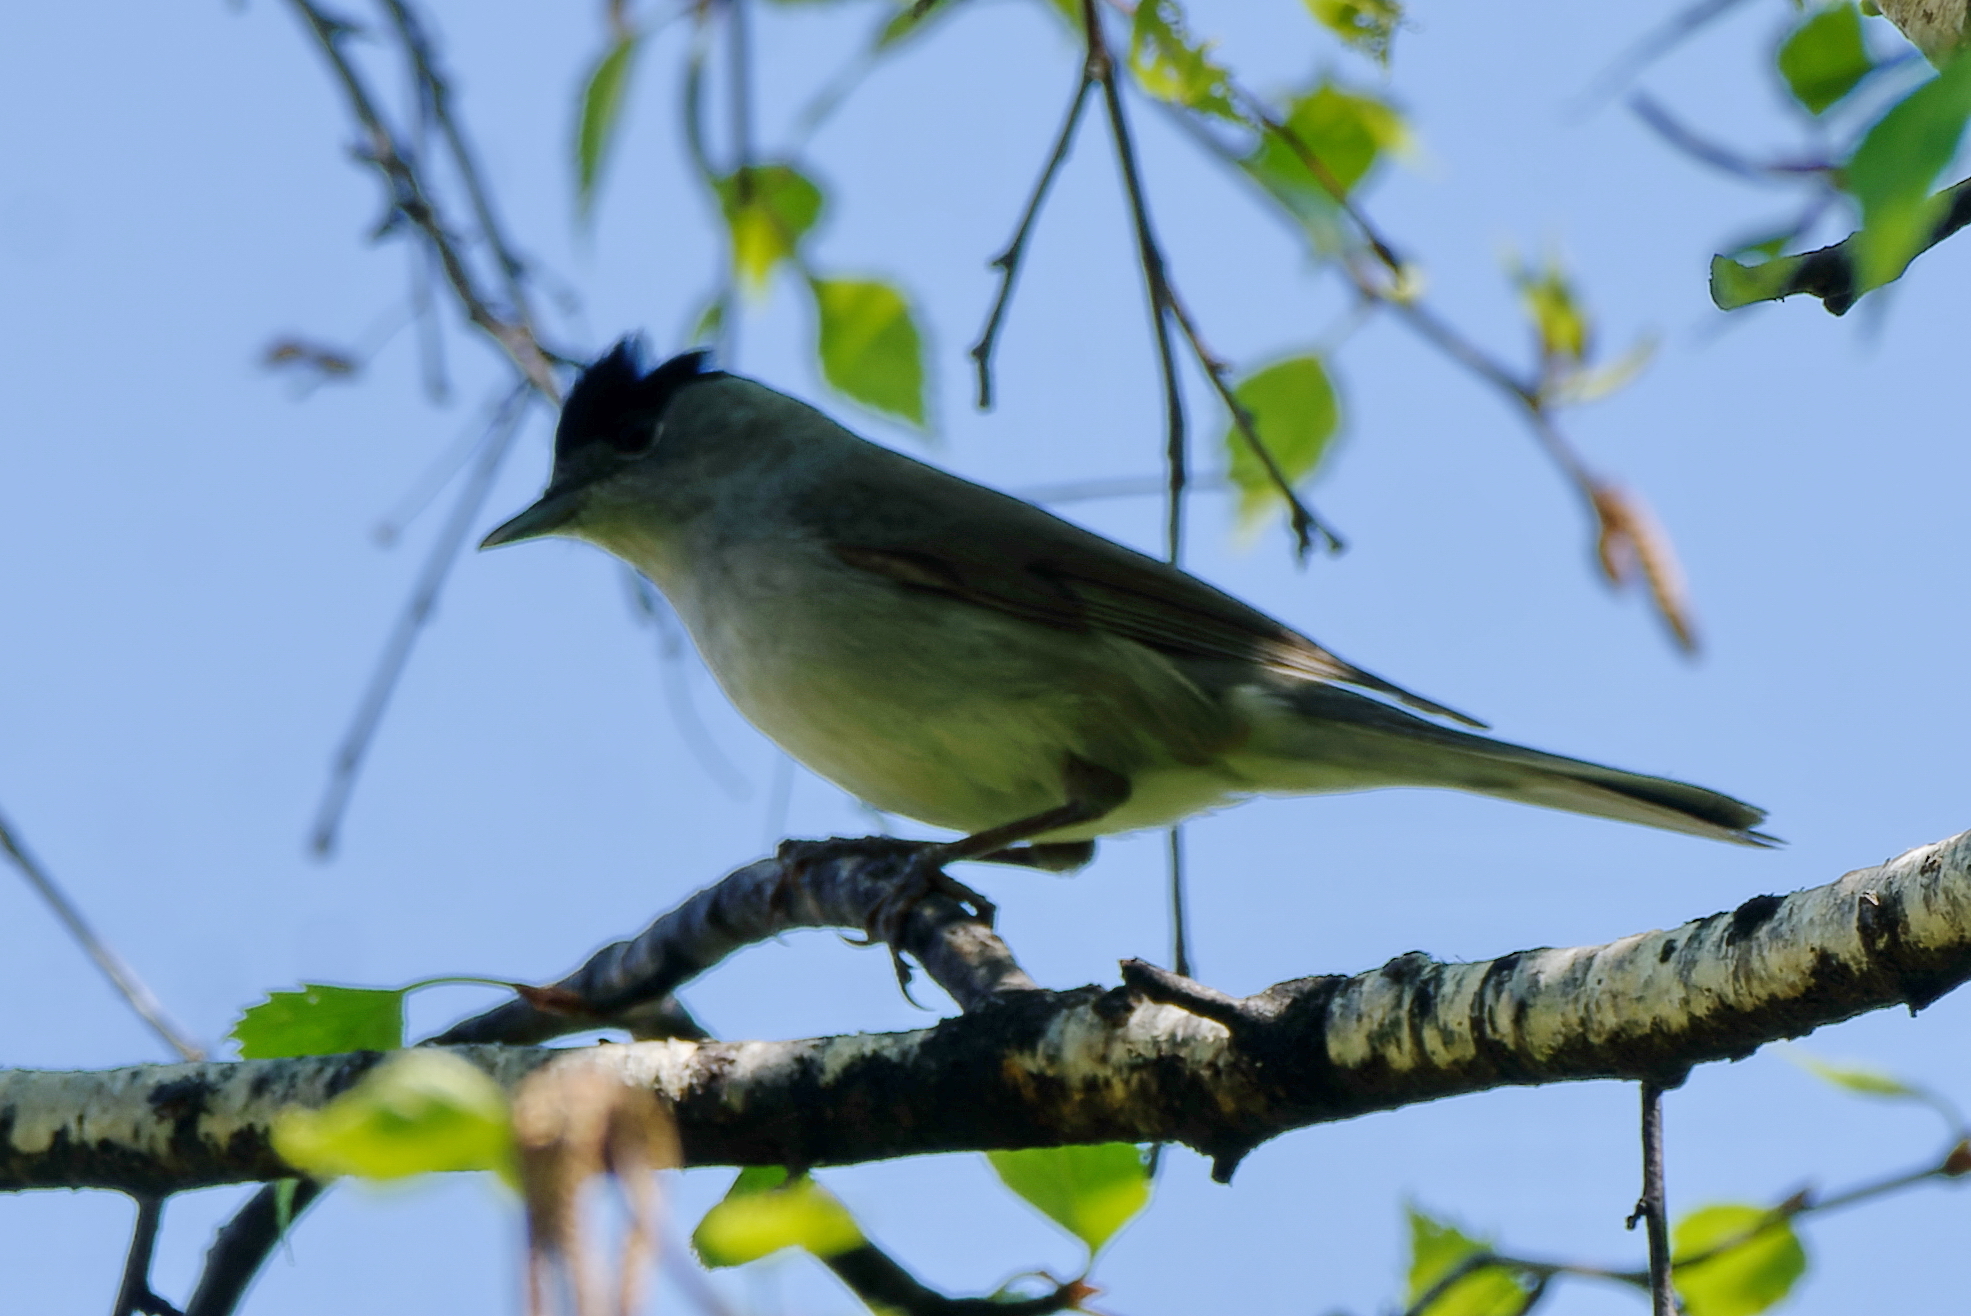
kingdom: Animalia
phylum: Chordata
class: Aves
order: Passeriformes
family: Sylviidae
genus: Sylvia
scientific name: Sylvia atricapilla
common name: Eurasian blackcap
